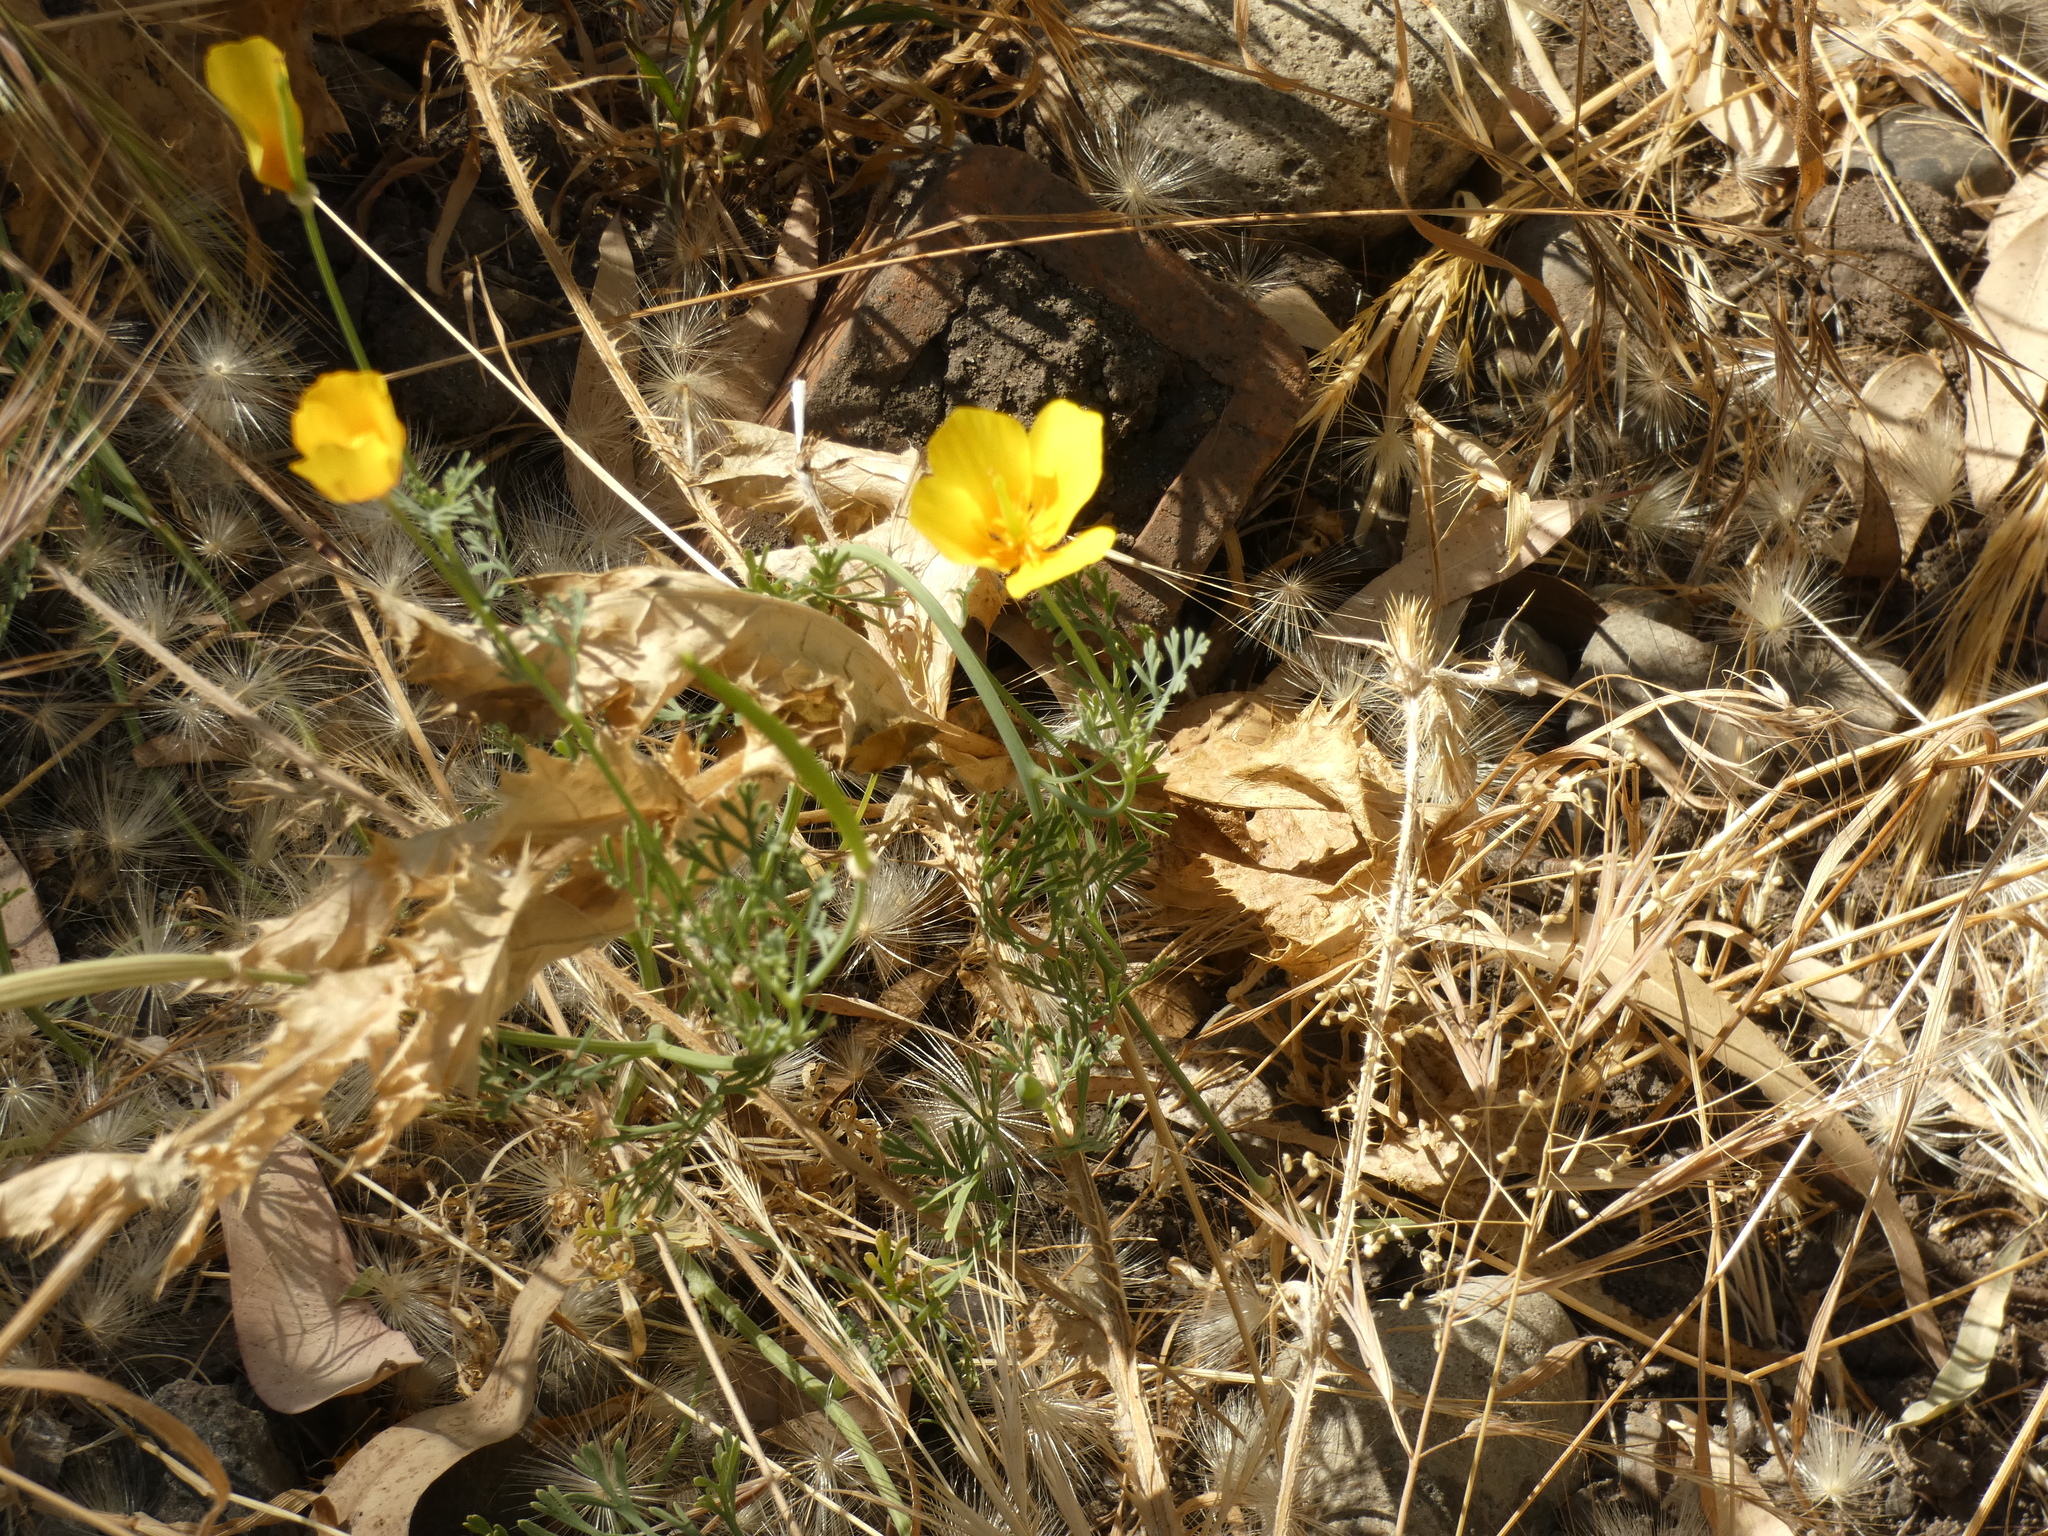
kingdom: Plantae
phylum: Tracheophyta
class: Magnoliopsida
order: Ranunculales
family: Papaveraceae
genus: Eschscholzia
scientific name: Eschscholzia californica
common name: California poppy
